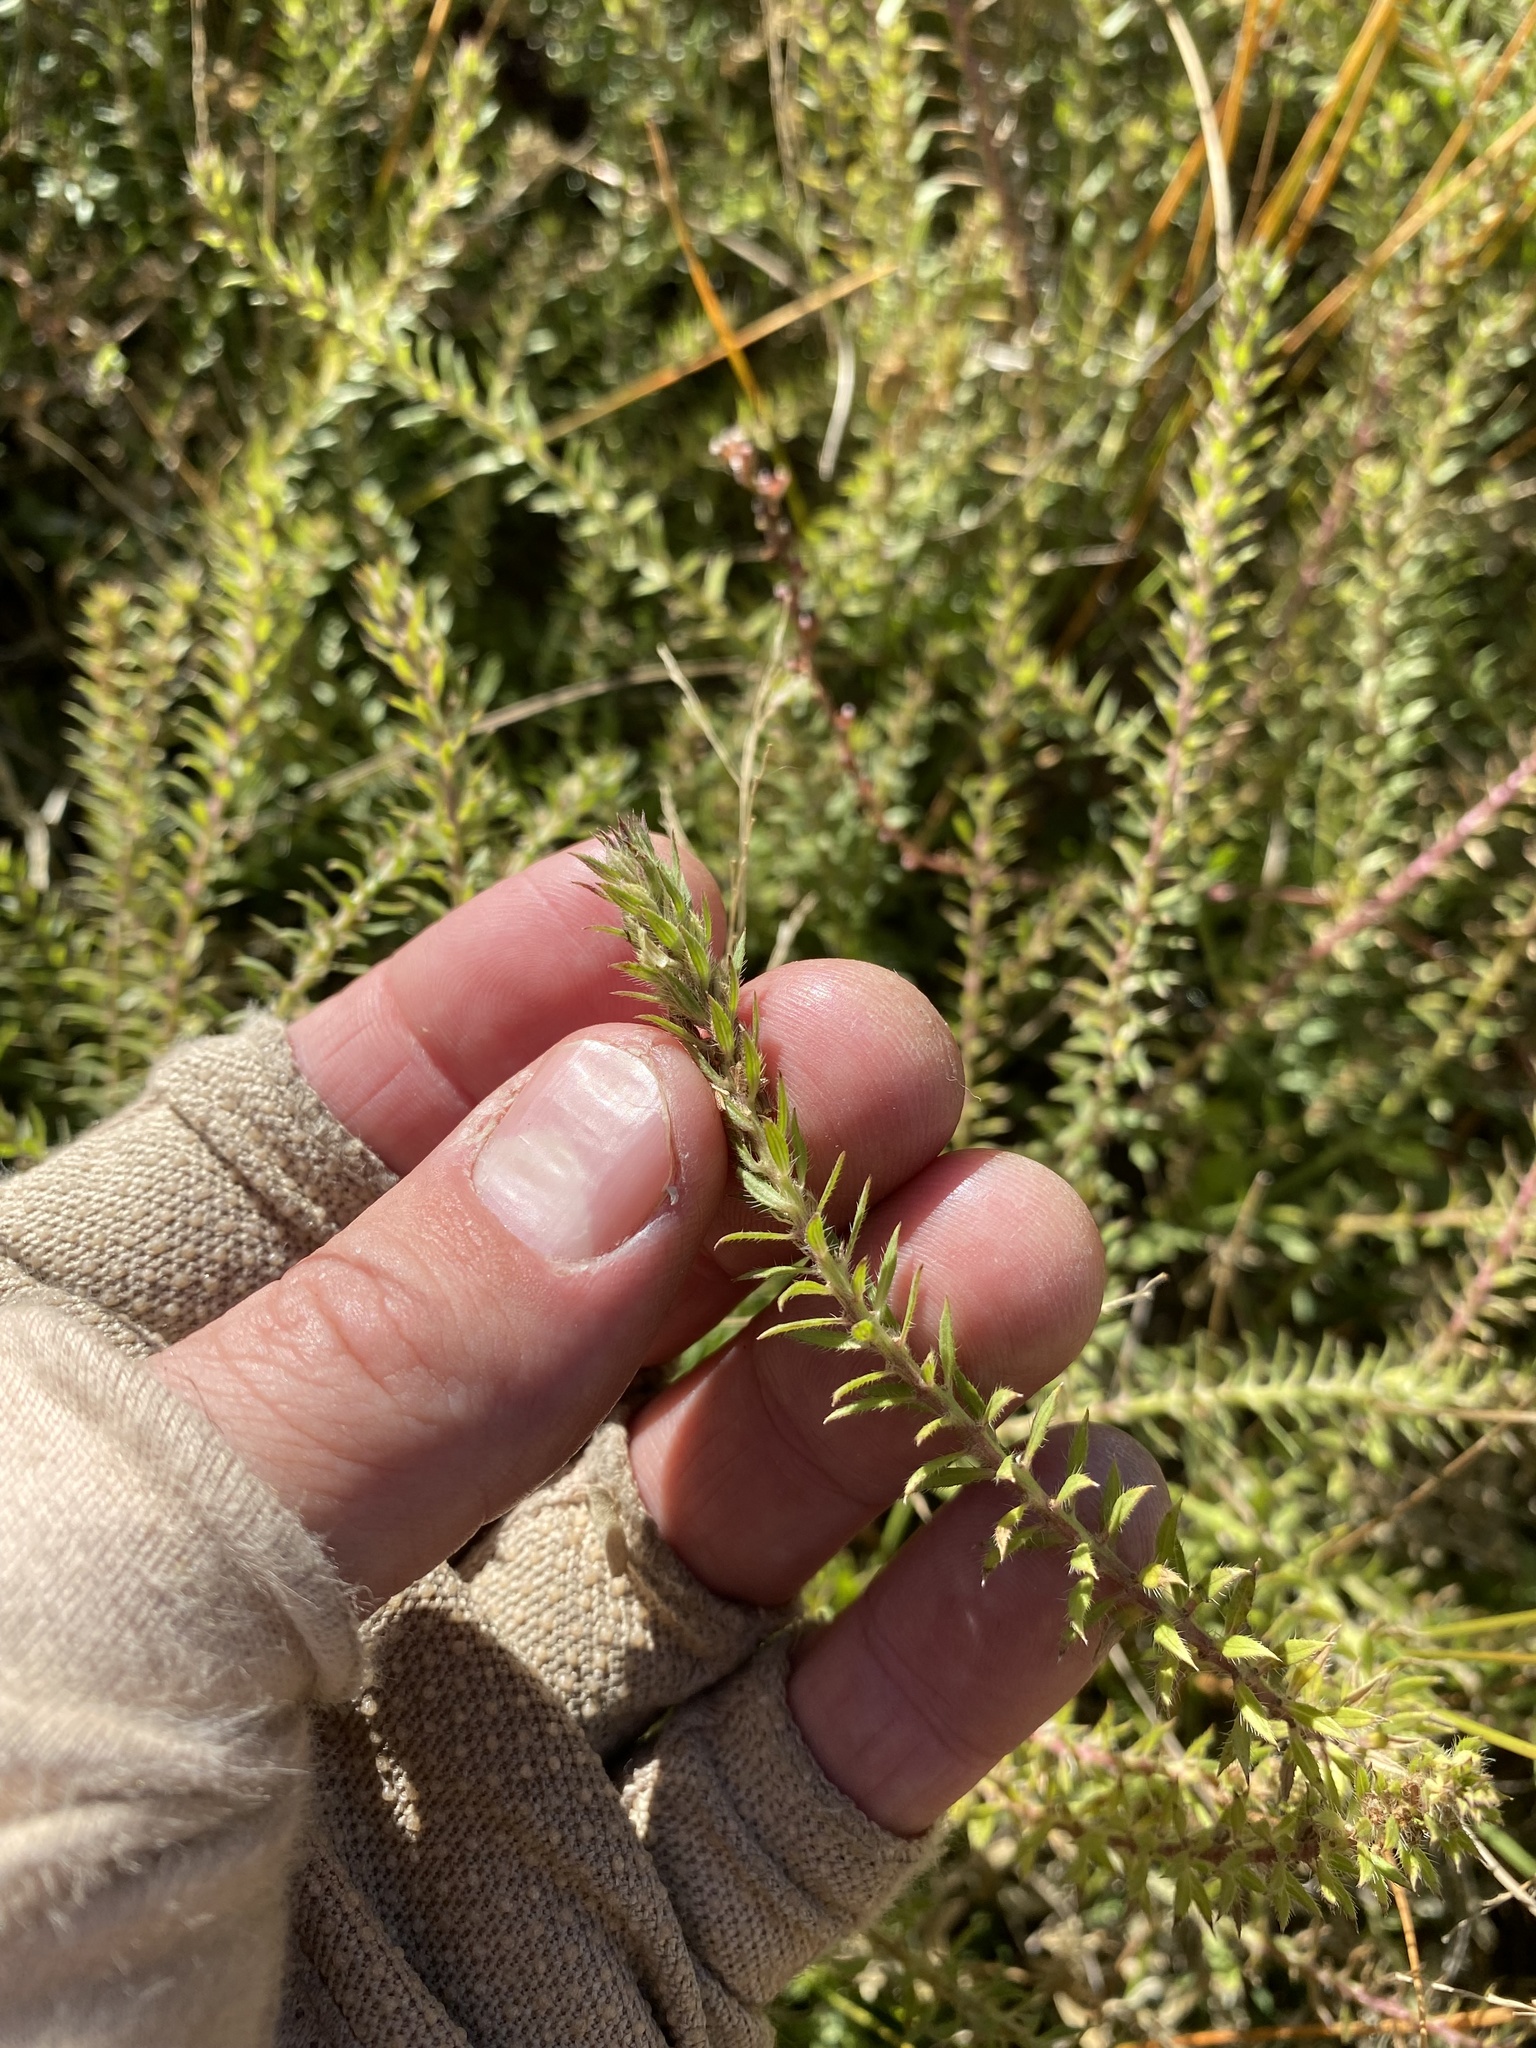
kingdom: Plantae
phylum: Tracheophyta
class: Magnoliopsida
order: Lamiales
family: Verbenaceae
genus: Verbena
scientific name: Verbena bracteata
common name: Bracted vervain
